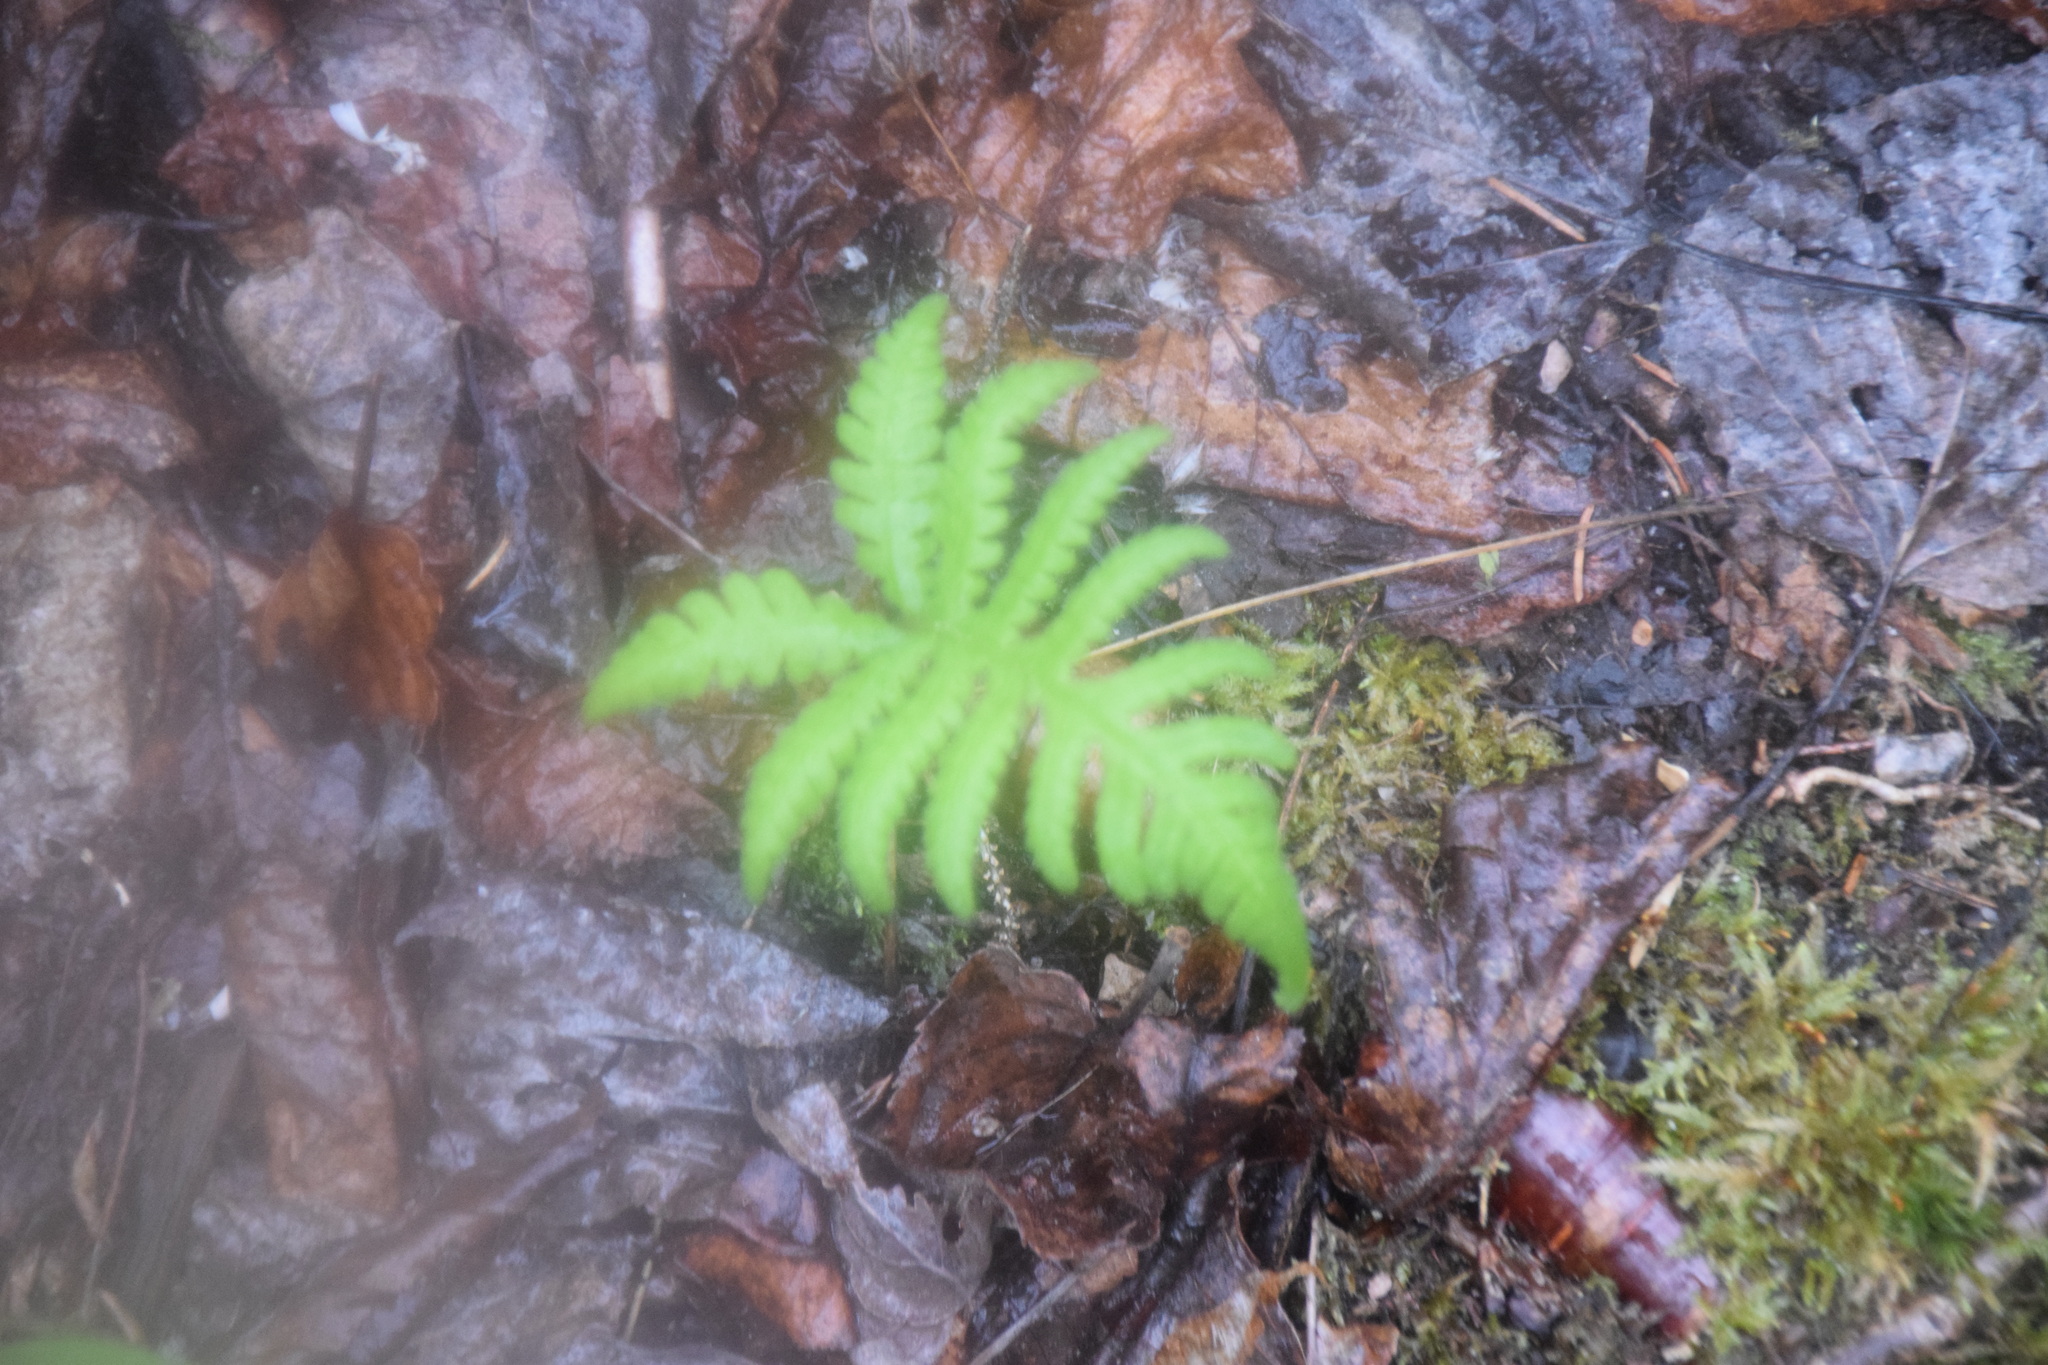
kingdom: Plantae
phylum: Tracheophyta
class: Polypodiopsida
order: Polypodiales
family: Thelypteridaceae
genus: Phegopteris
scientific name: Phegopteris connectilis
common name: Beech fern
